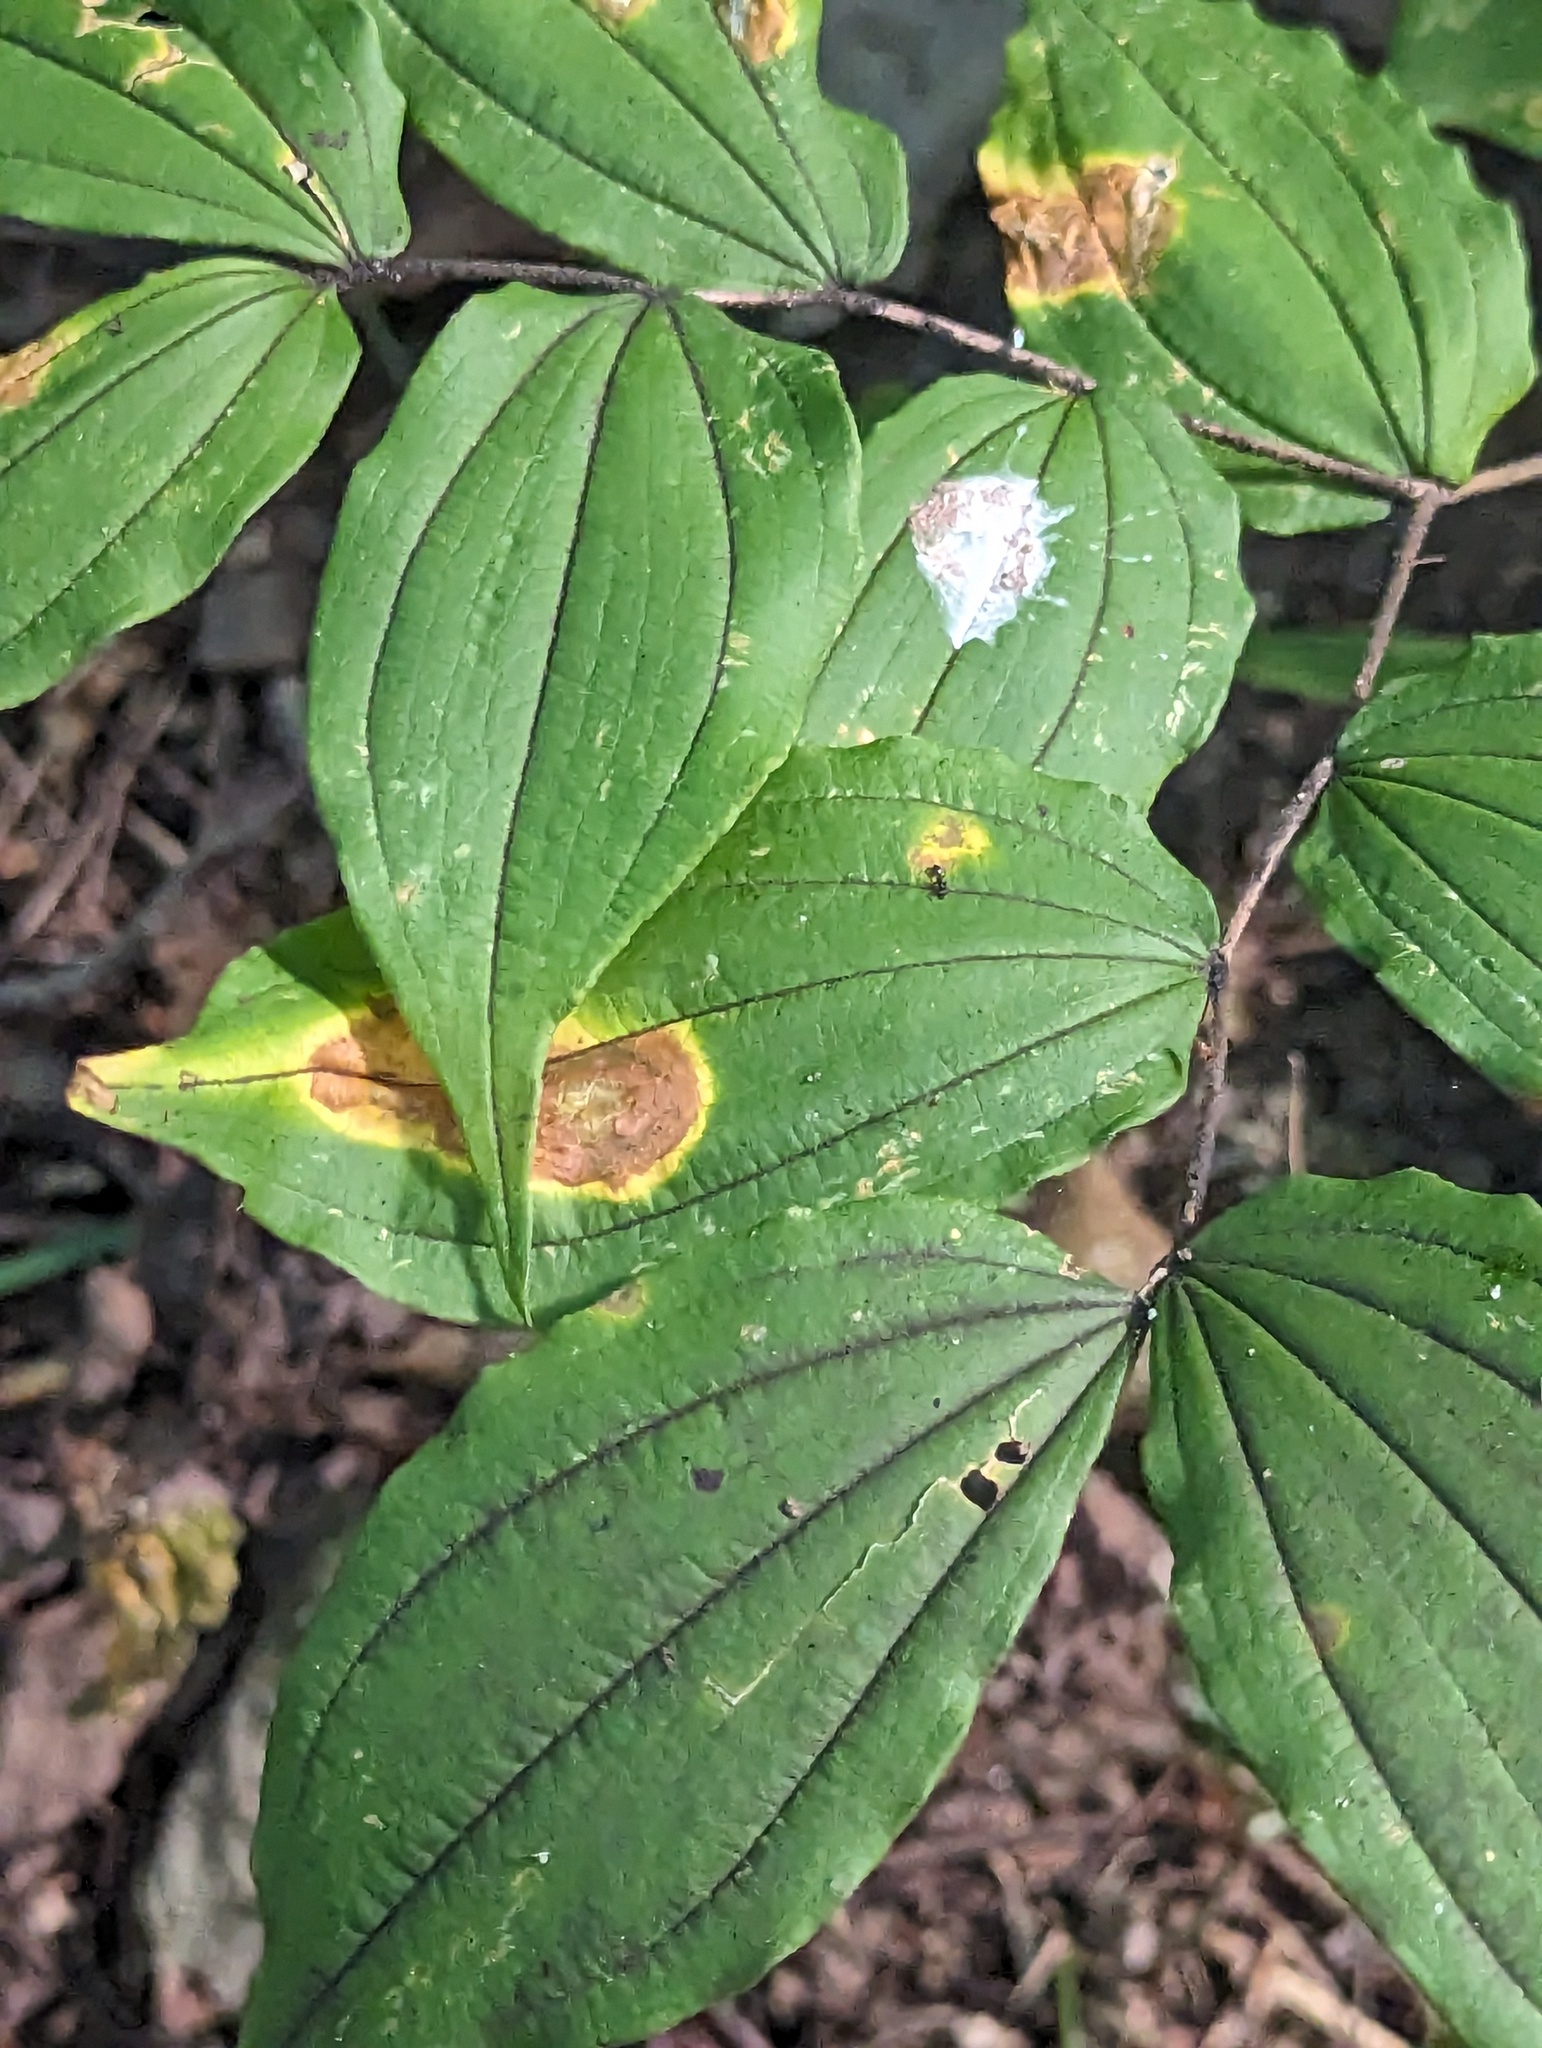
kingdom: Plantae
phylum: Tracheophyta
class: Liliopsida
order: Liliales
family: Liliaceae
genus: Prosartes
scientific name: Prosartes lanuginosa
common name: Hairy mandarin
